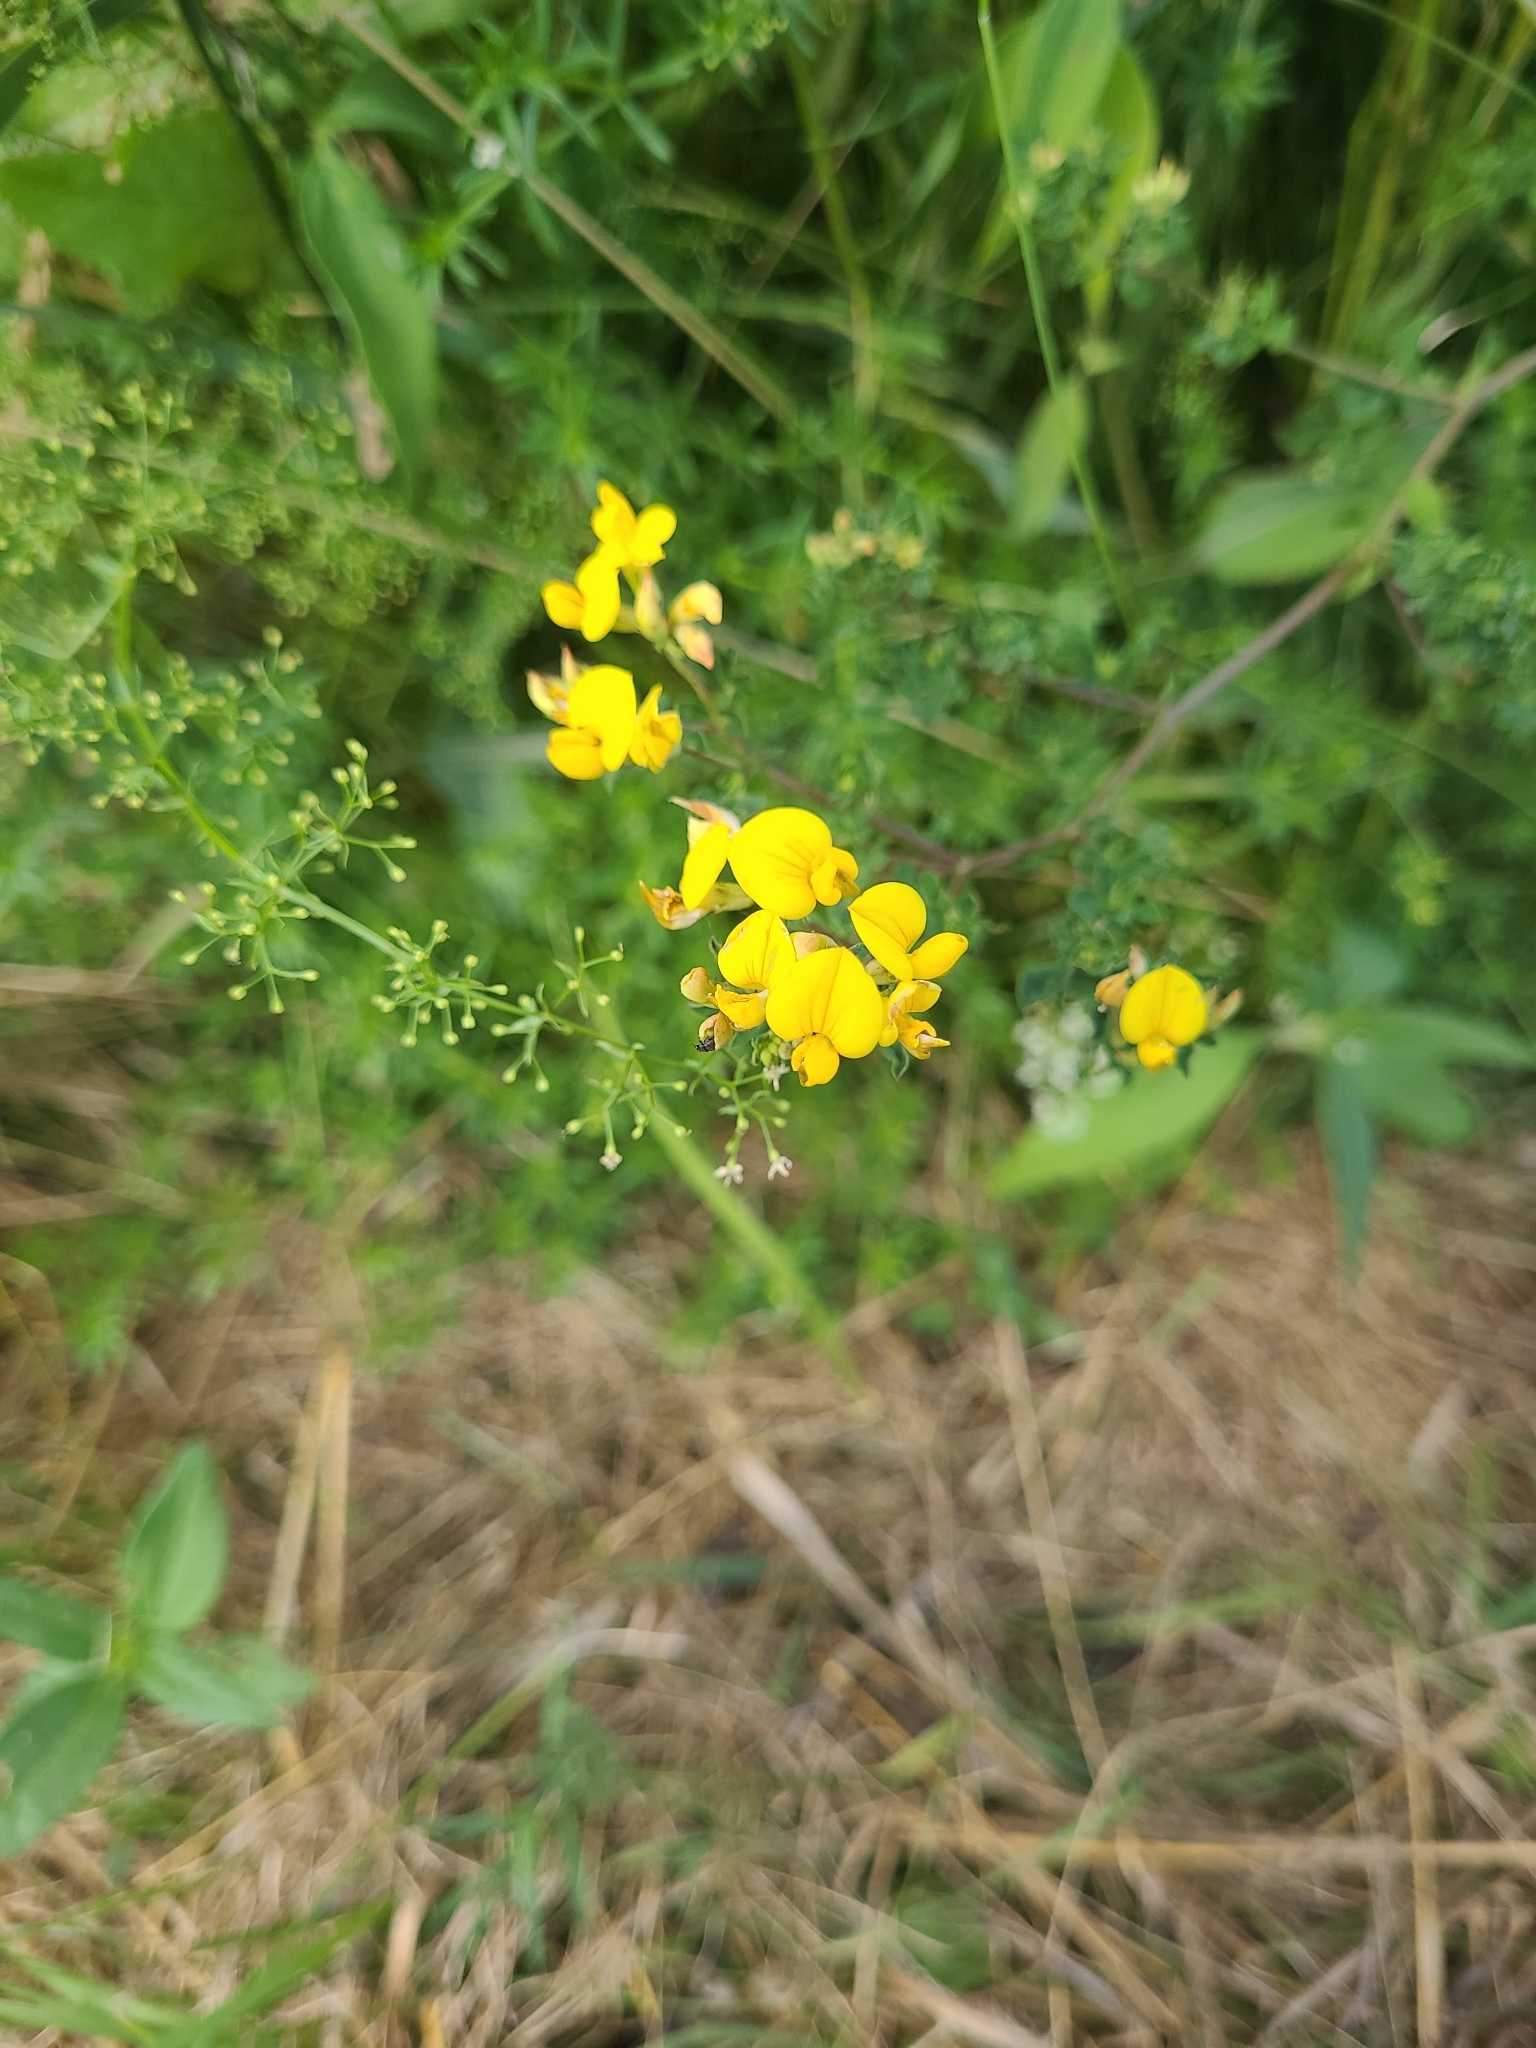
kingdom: Plantae
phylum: Tracheophyta
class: Magnoliopsida
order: Fabales
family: Fabaceae
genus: Lotus
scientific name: Lotus corniculatus
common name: Common bird's-foot-trefoil
